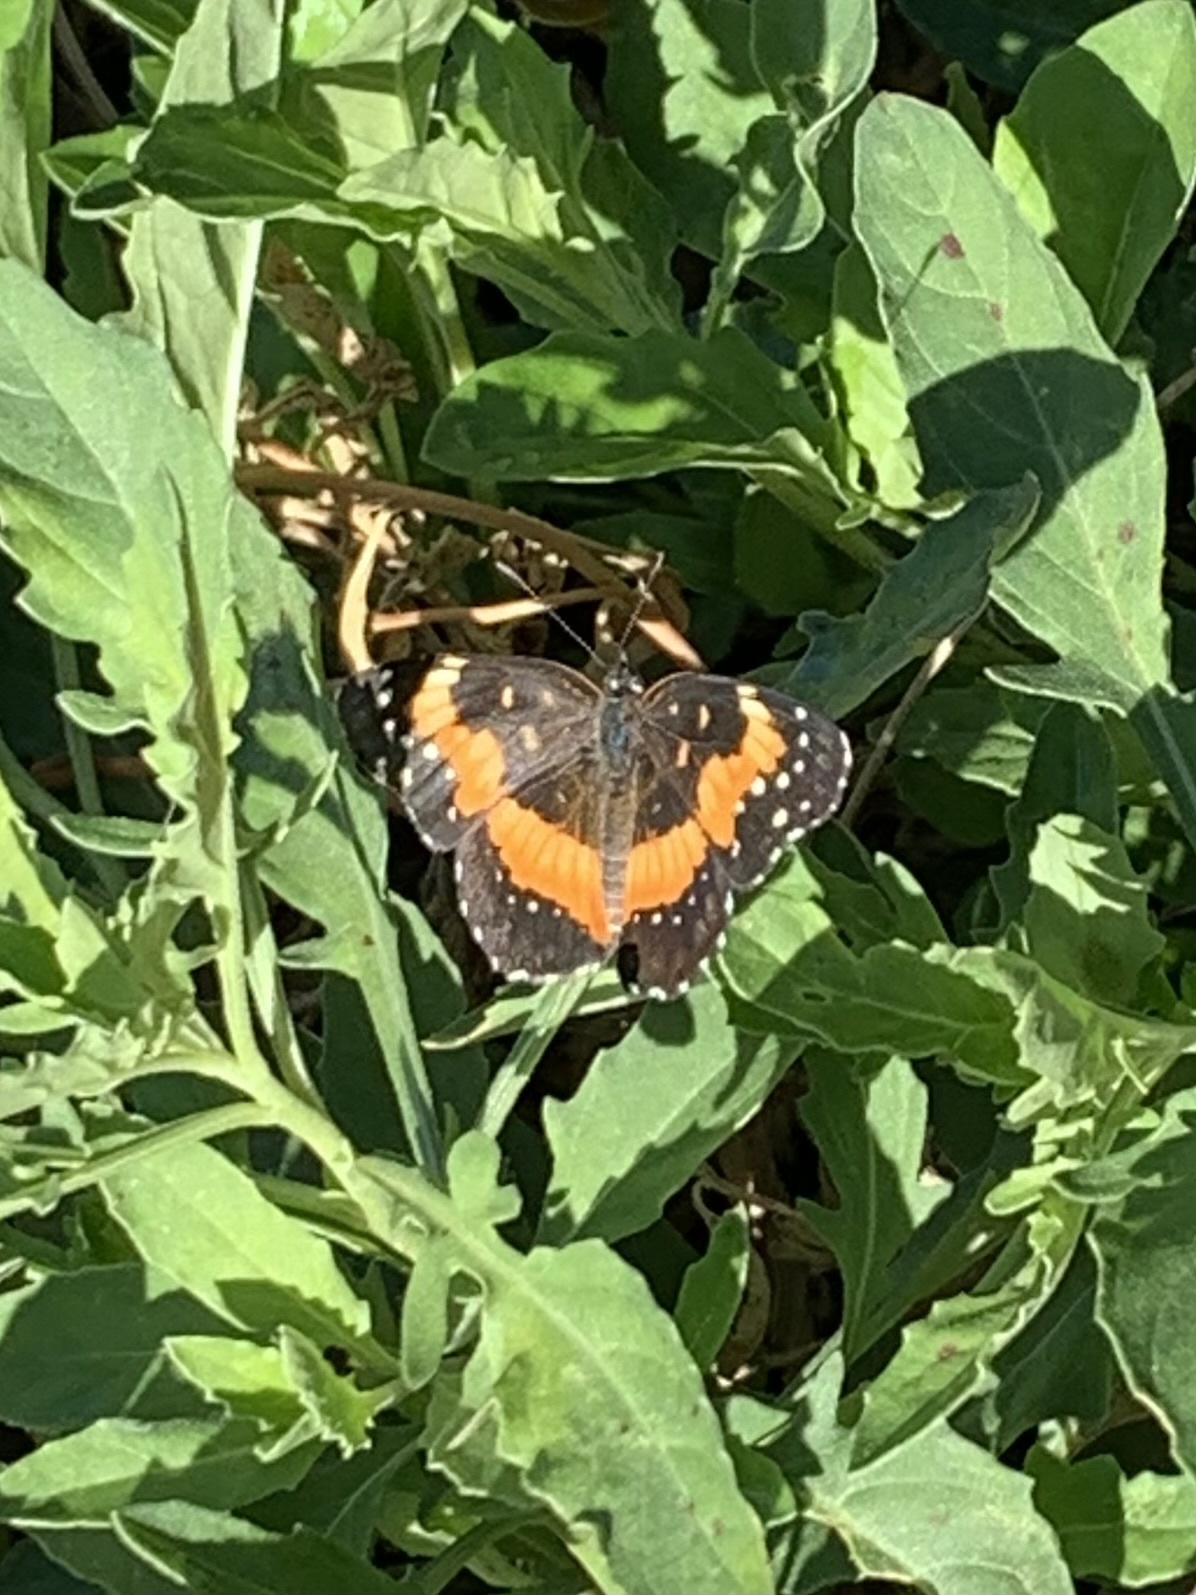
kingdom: Animalia
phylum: Arthropoda
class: Insecta
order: Lepidoptera
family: Nymphalidae
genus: Chlosyne
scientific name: Chlosyne lacinia
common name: Bordered patch
